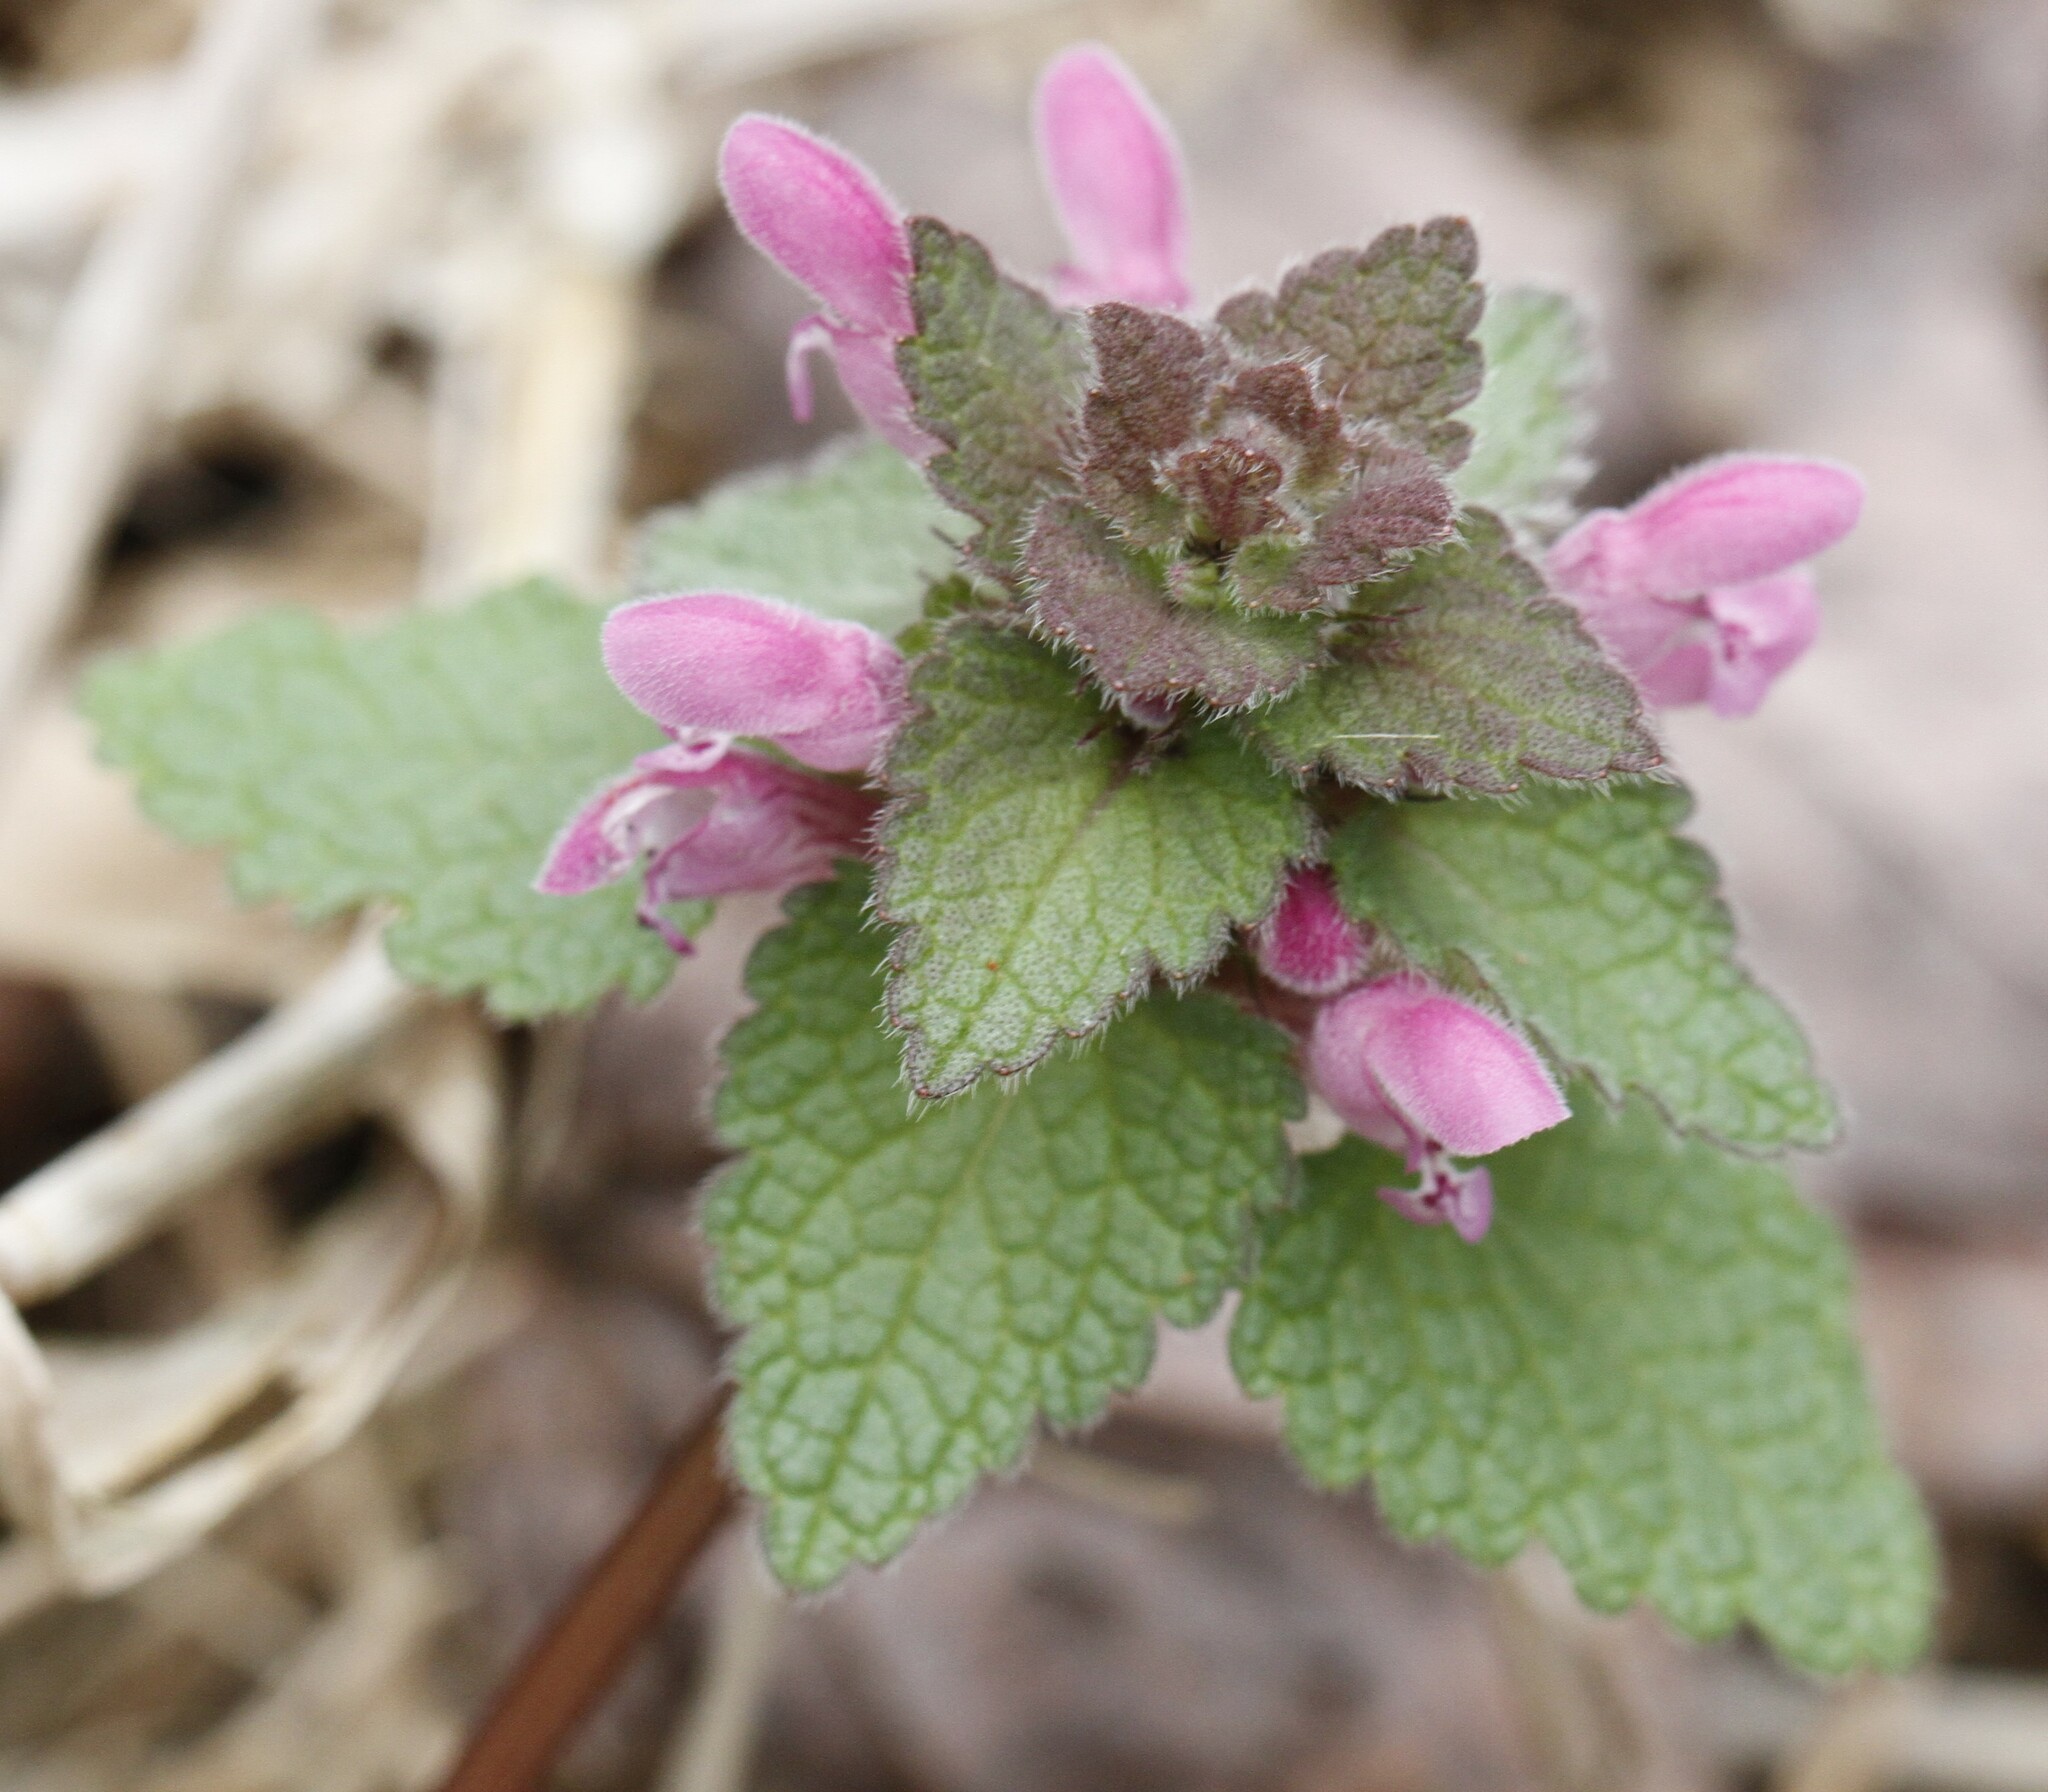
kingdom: Plantae
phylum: Tracheophyta
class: Magnoliopsida
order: Lamiales
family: Lamiaceae
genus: Lamium
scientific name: Lamium purpureum
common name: Red dead-nettle
